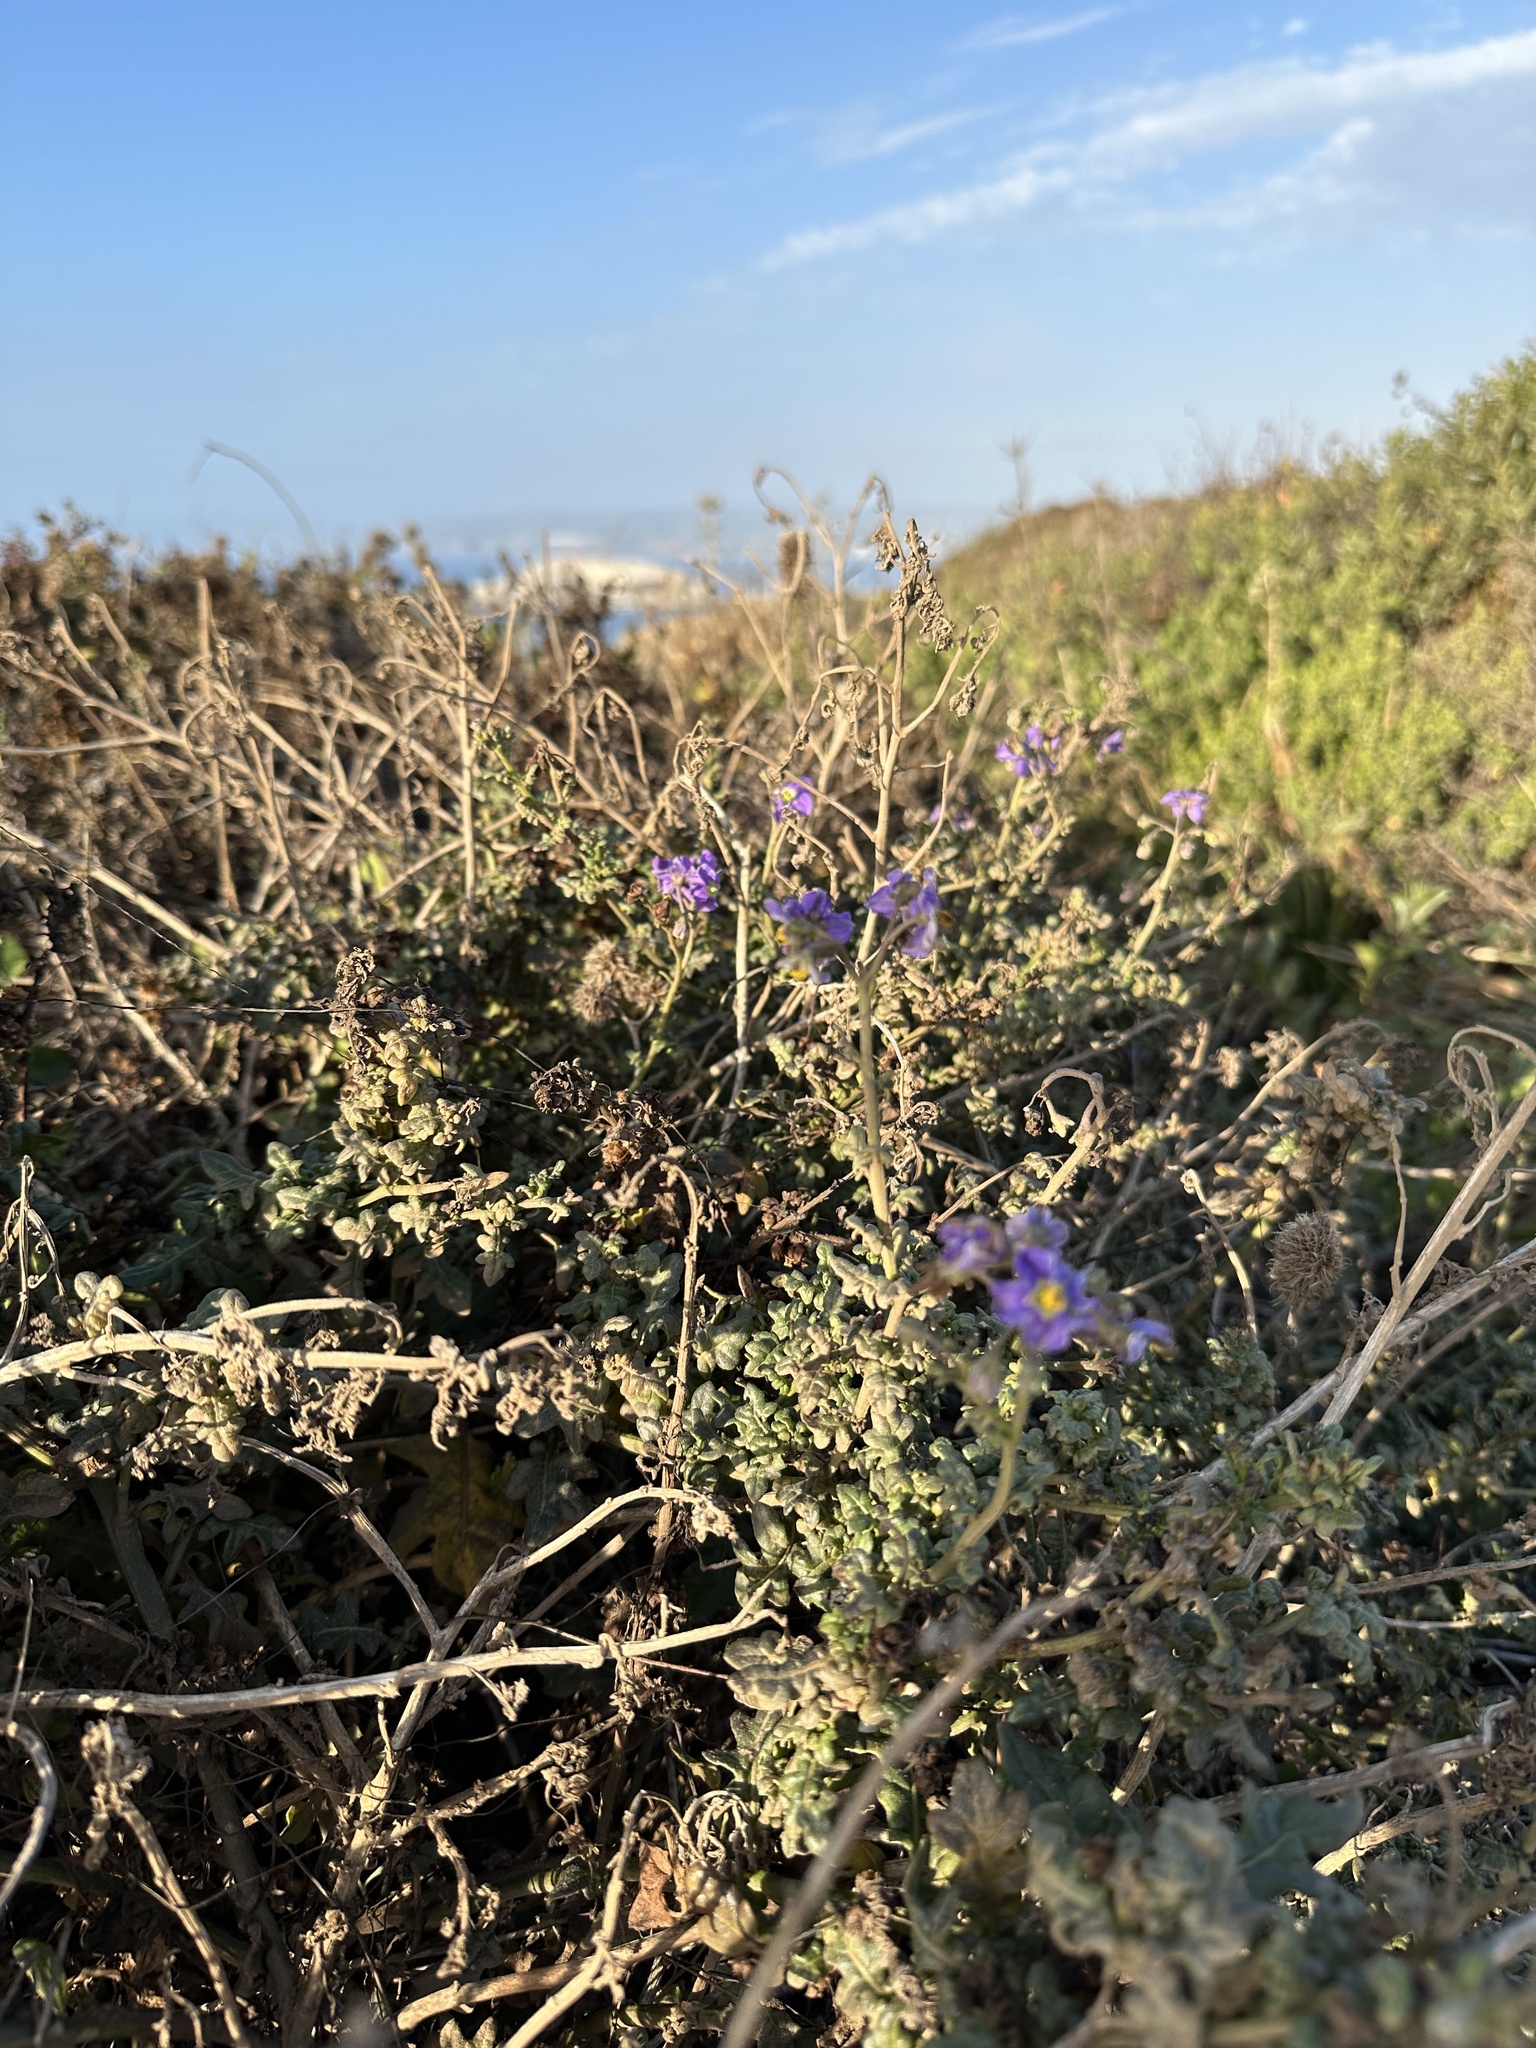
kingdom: Plantae
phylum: Tracheophyta
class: Magnoliopsida
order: Solanales
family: Solanaceae
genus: Solanum
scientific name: Solanum pinnatum
